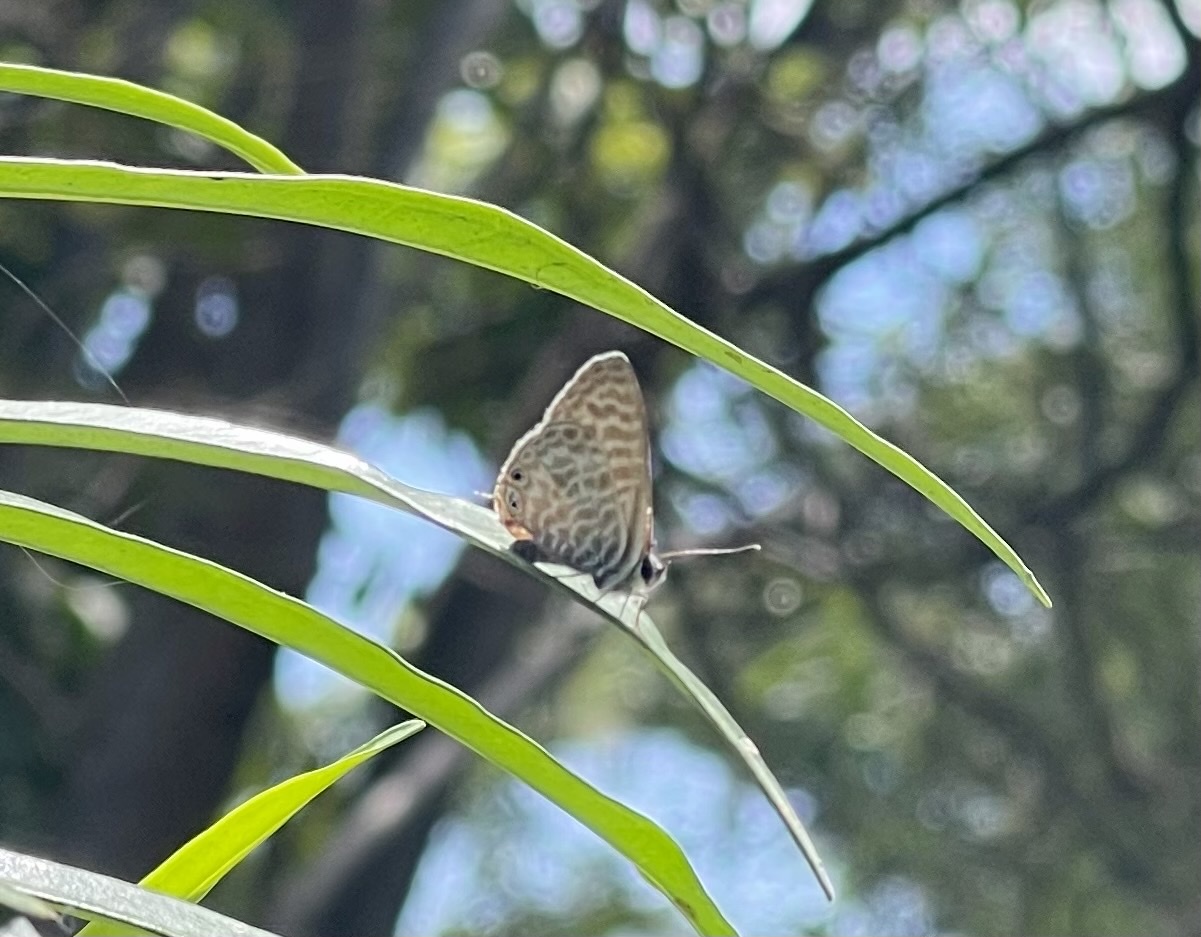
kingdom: Animalia
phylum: Arthropoda
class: Insecta
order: Lepidoptera
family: Lycaenidae
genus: Leptotes
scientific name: Leptotes pirithous
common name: Lang's short-tailed blue
